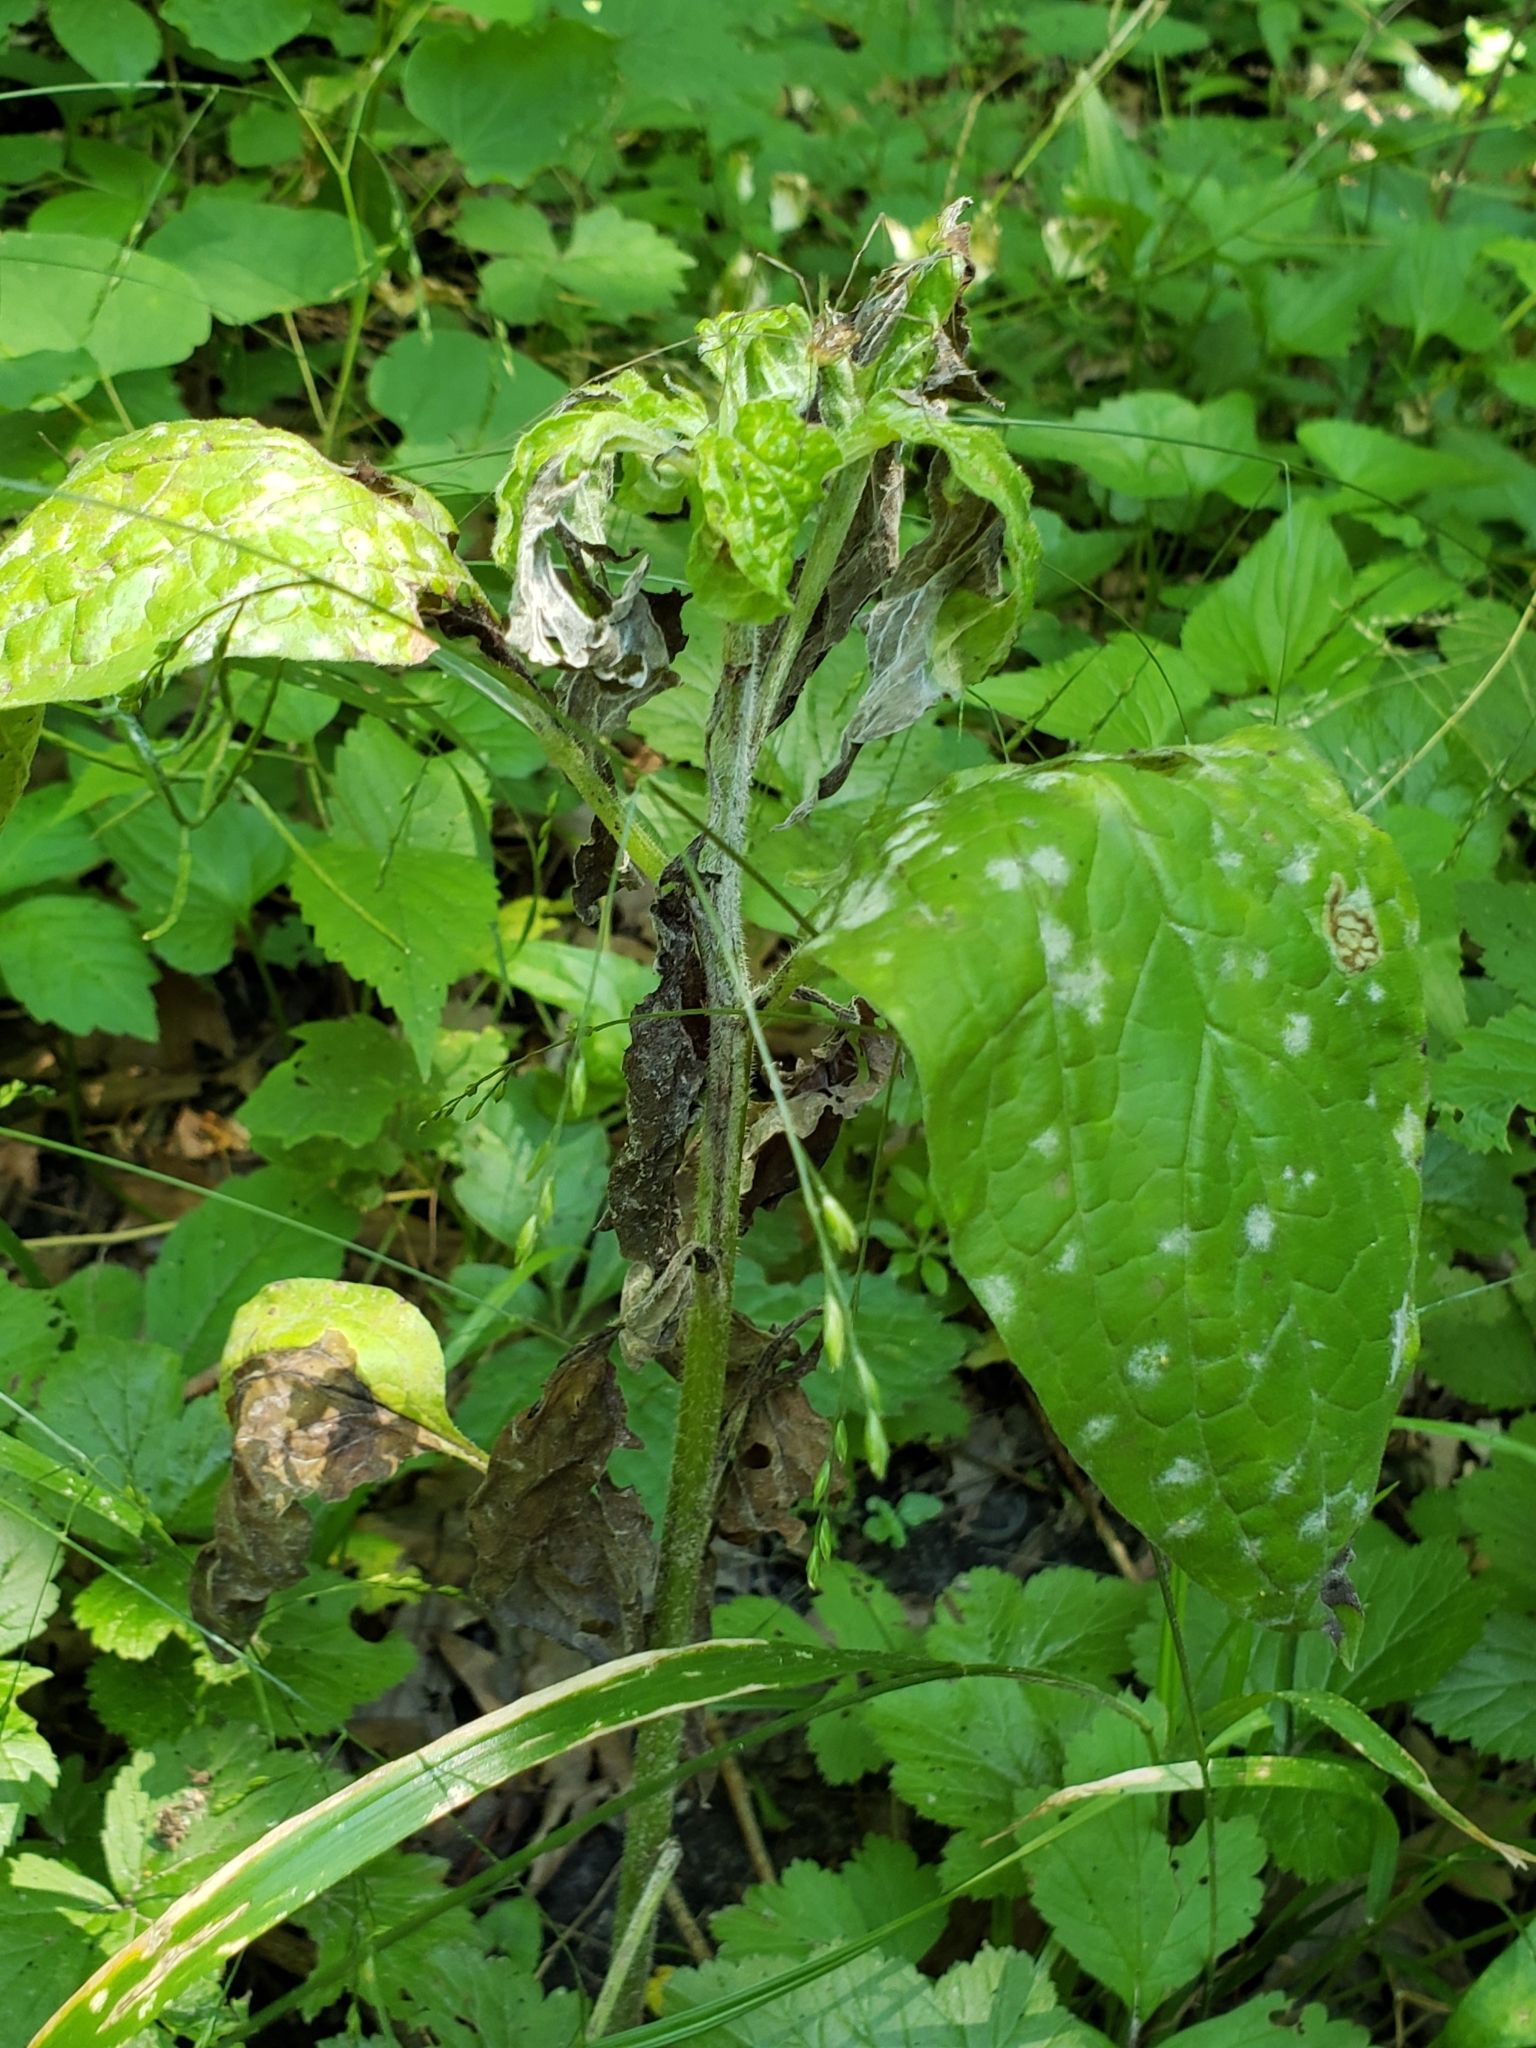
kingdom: Plantae
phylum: Tracheophyta
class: Magnoliopsida
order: Boraginales
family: Boraginaceae
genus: Hackelia
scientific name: Hackelia virginiana
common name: Beggar's-lice
